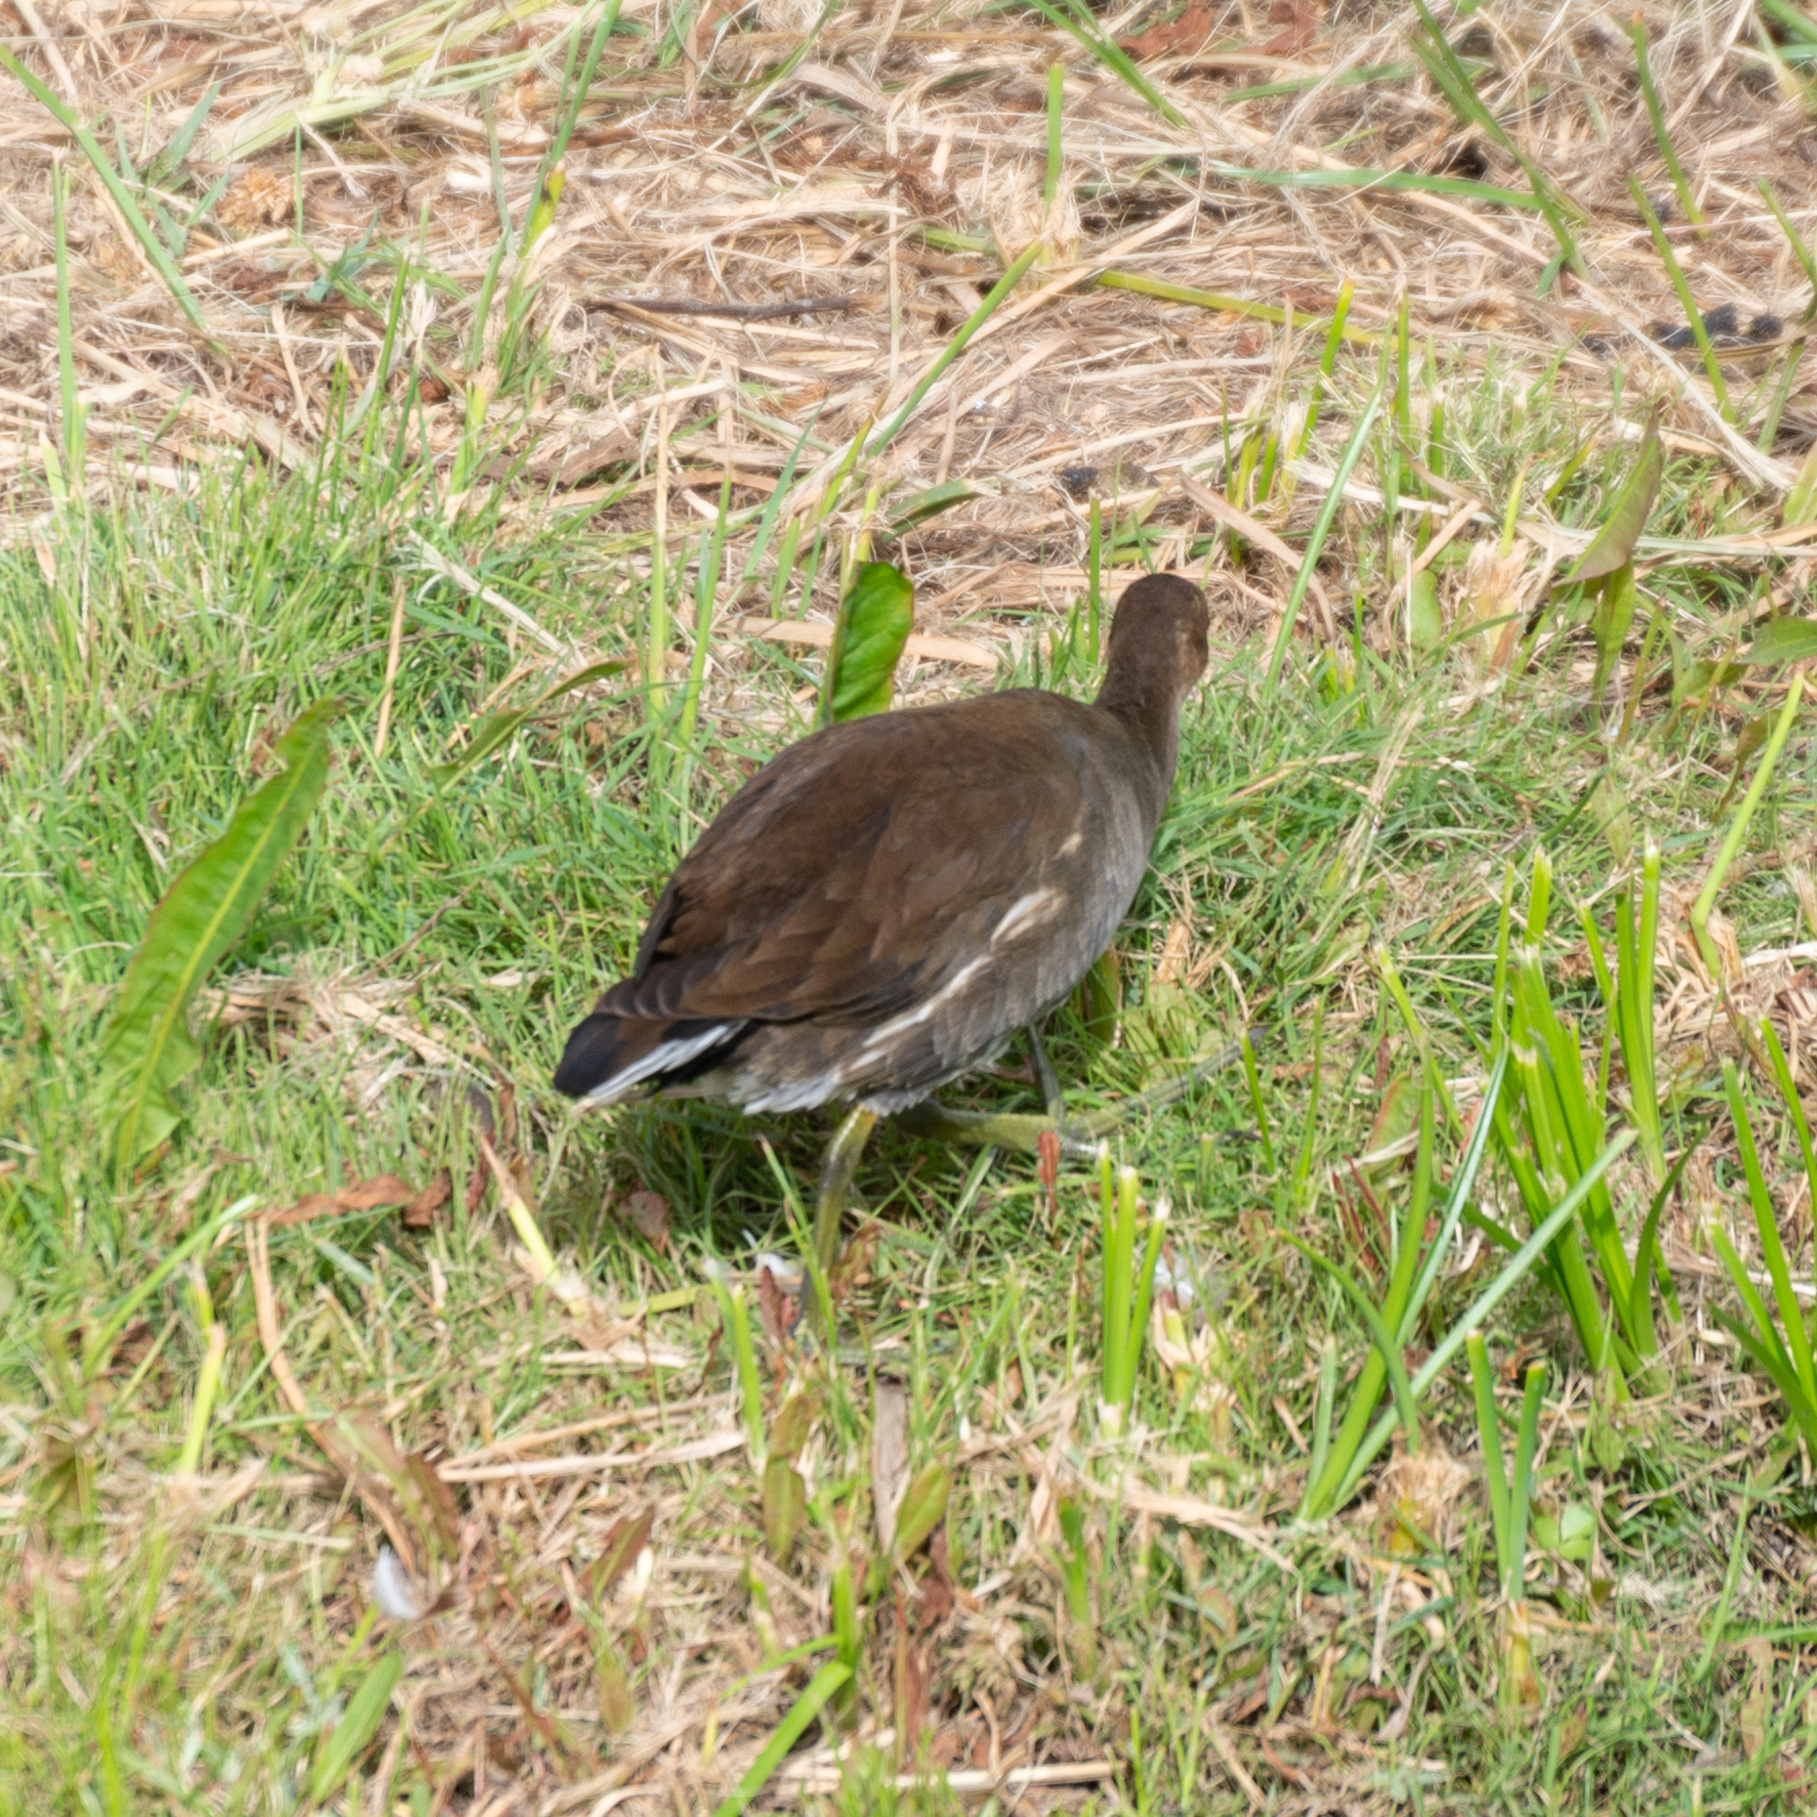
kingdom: Animalia
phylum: Chordata
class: Aves
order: Gruiformes
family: Rallidae
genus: Gallinula
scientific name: Gallinula chloropus
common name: Common moorhen
